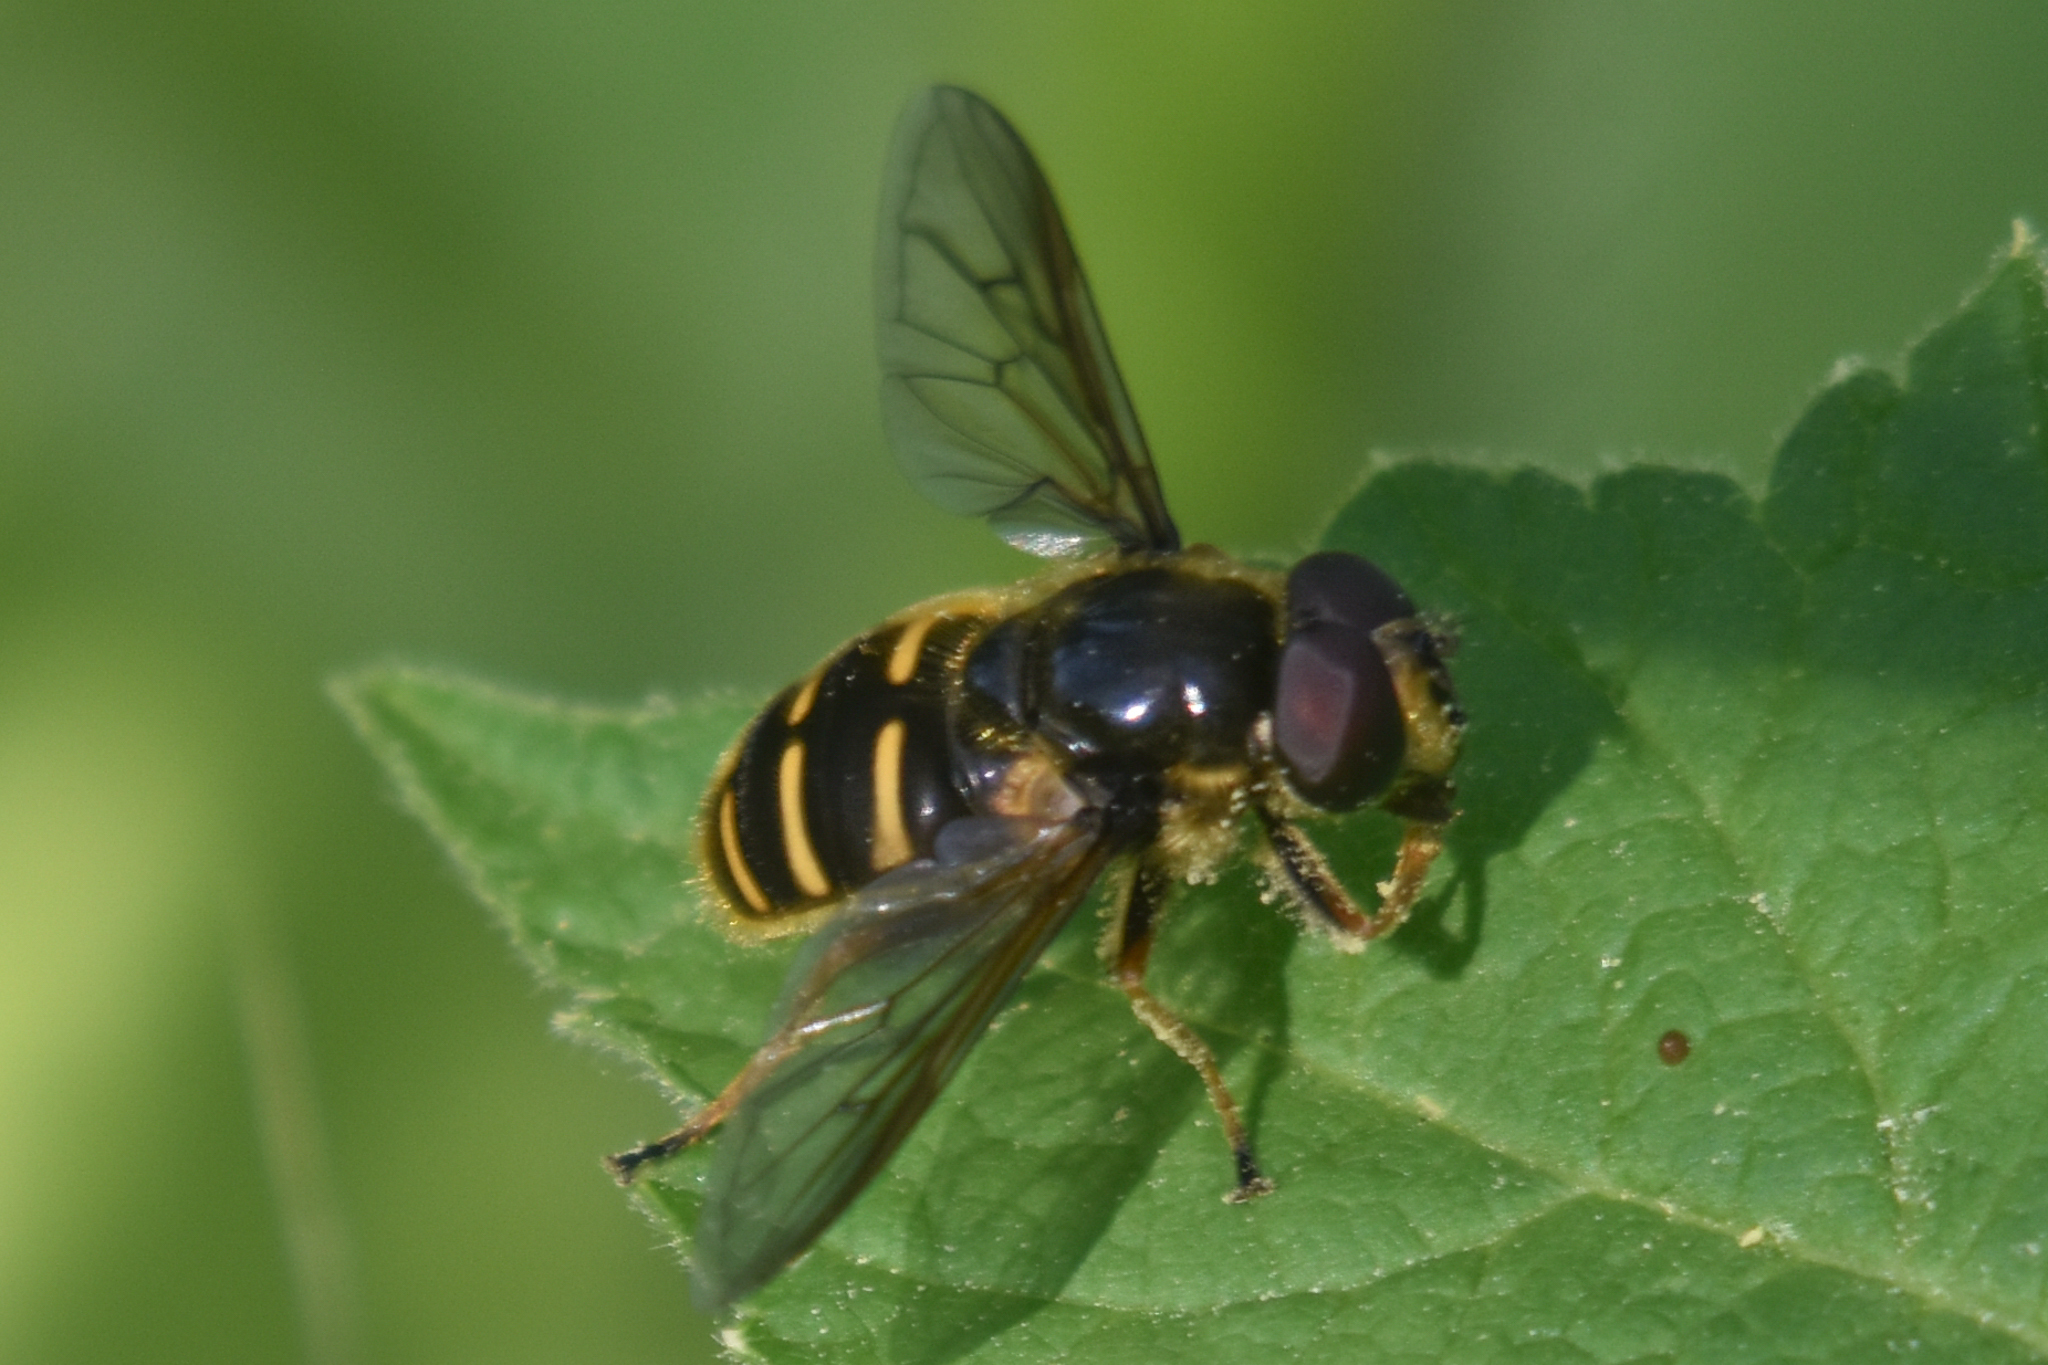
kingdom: Animalia
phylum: Arthropoda
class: Insecta
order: Diptera
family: Syrphidae
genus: Sericomyia
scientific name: Sericomyia chalcopyga
